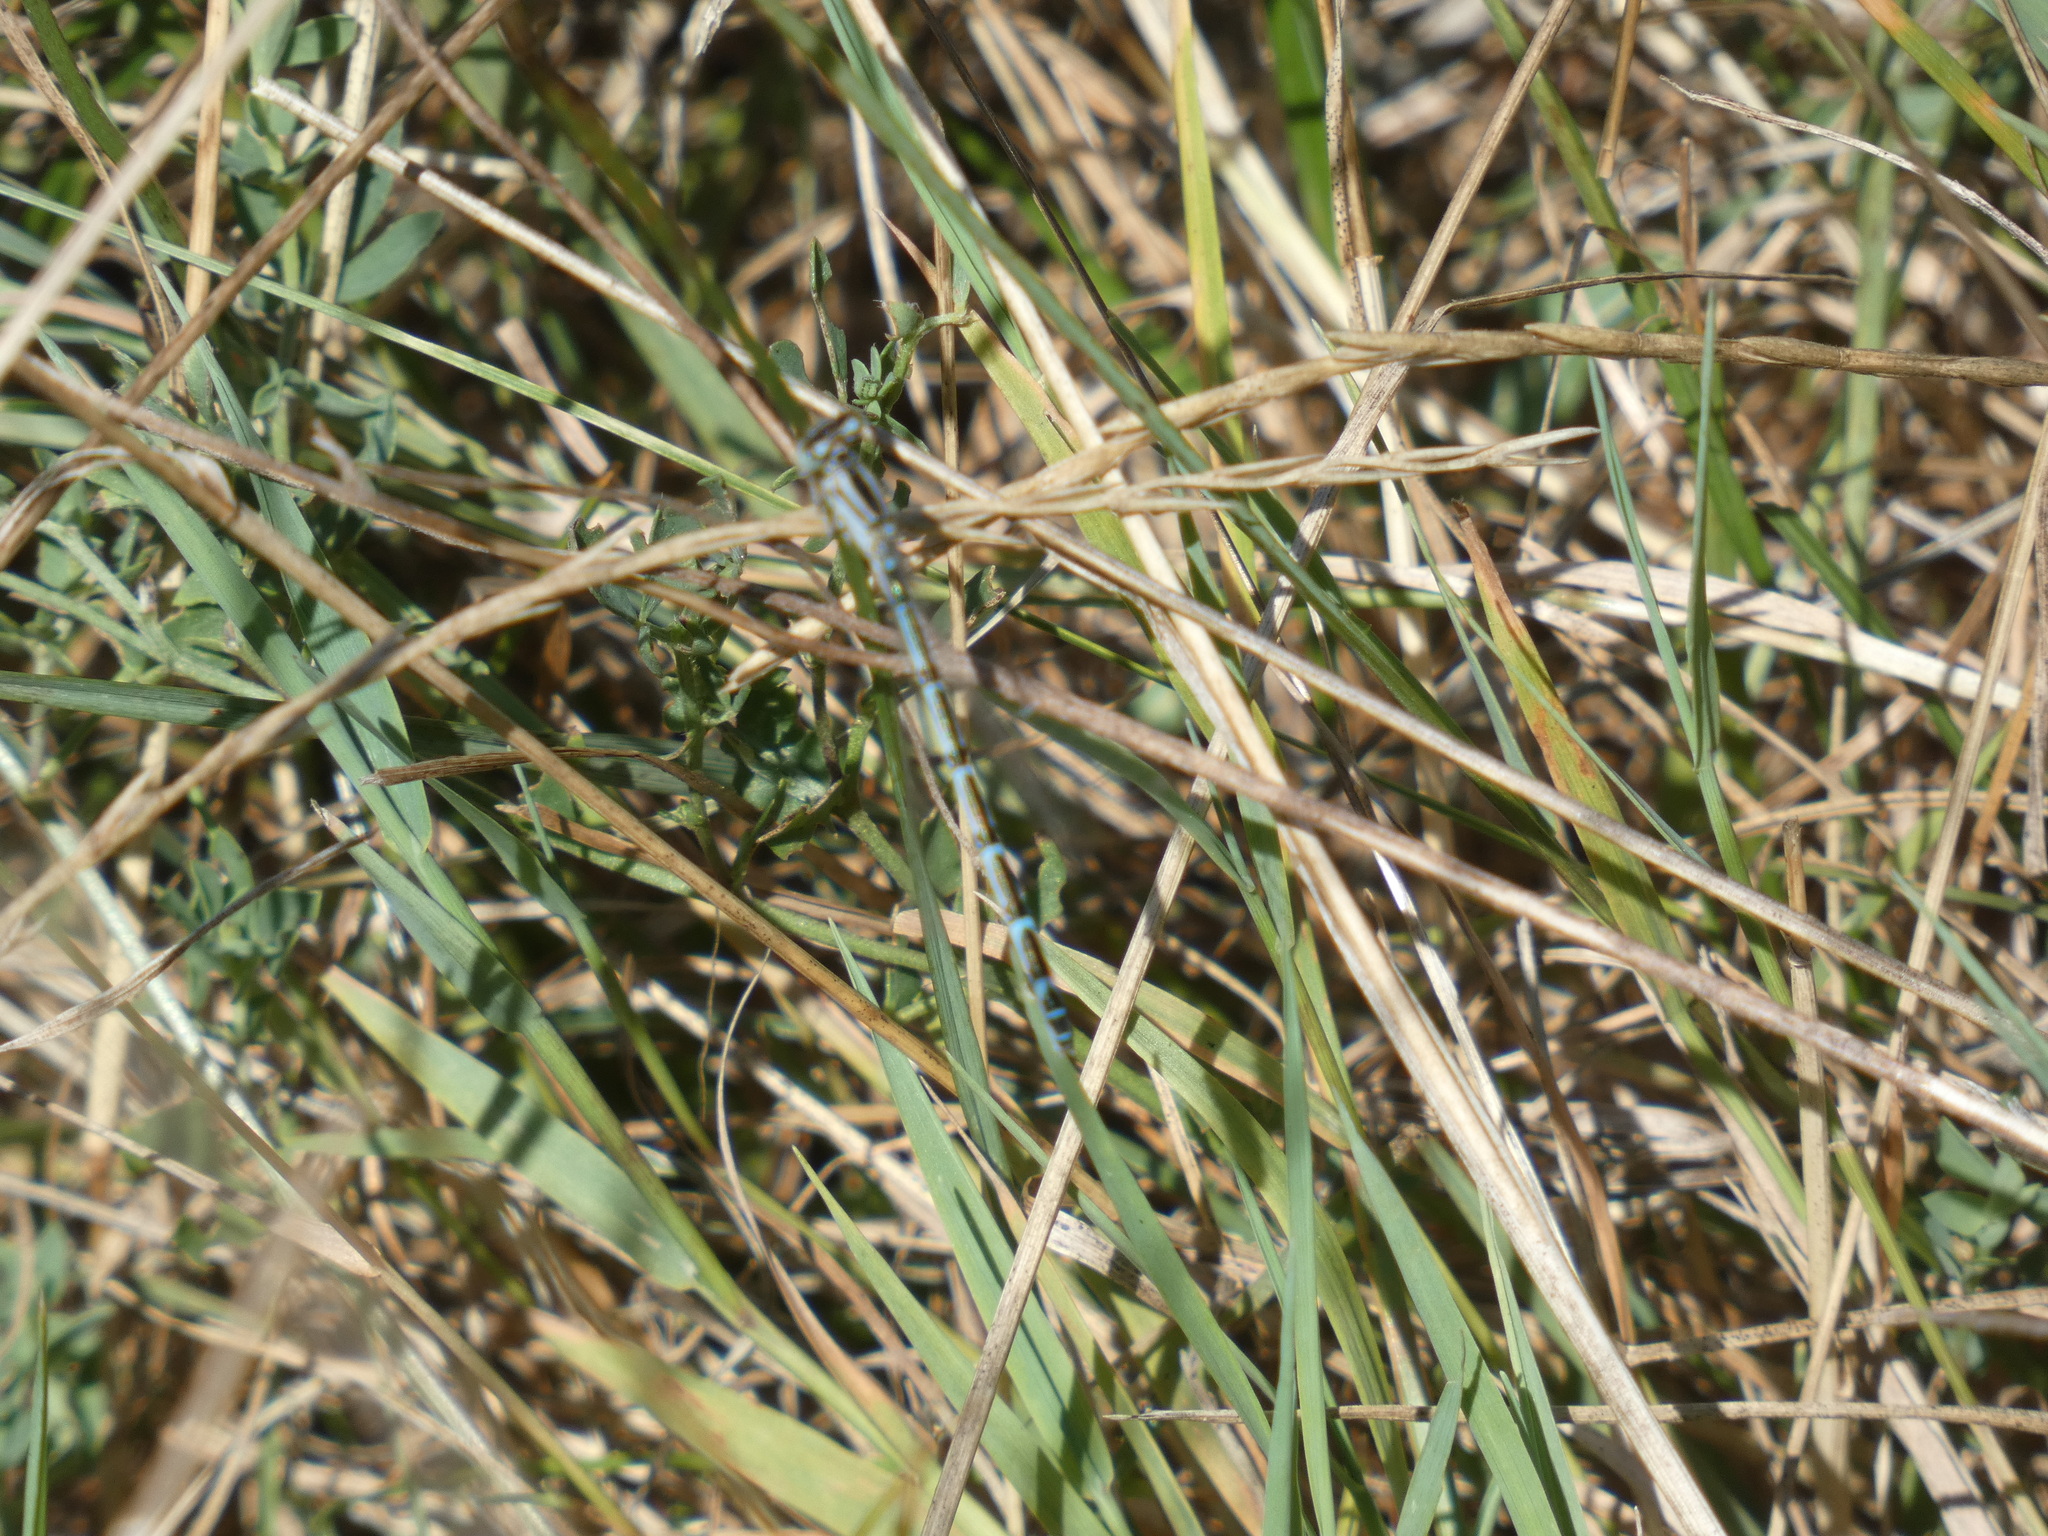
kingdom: Animalia
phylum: Arthropoda
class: Insecta
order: Odonata
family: Coenagrionidae
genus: Coenagrion
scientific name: Coenagrion scitulum
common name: Dainty bluet
